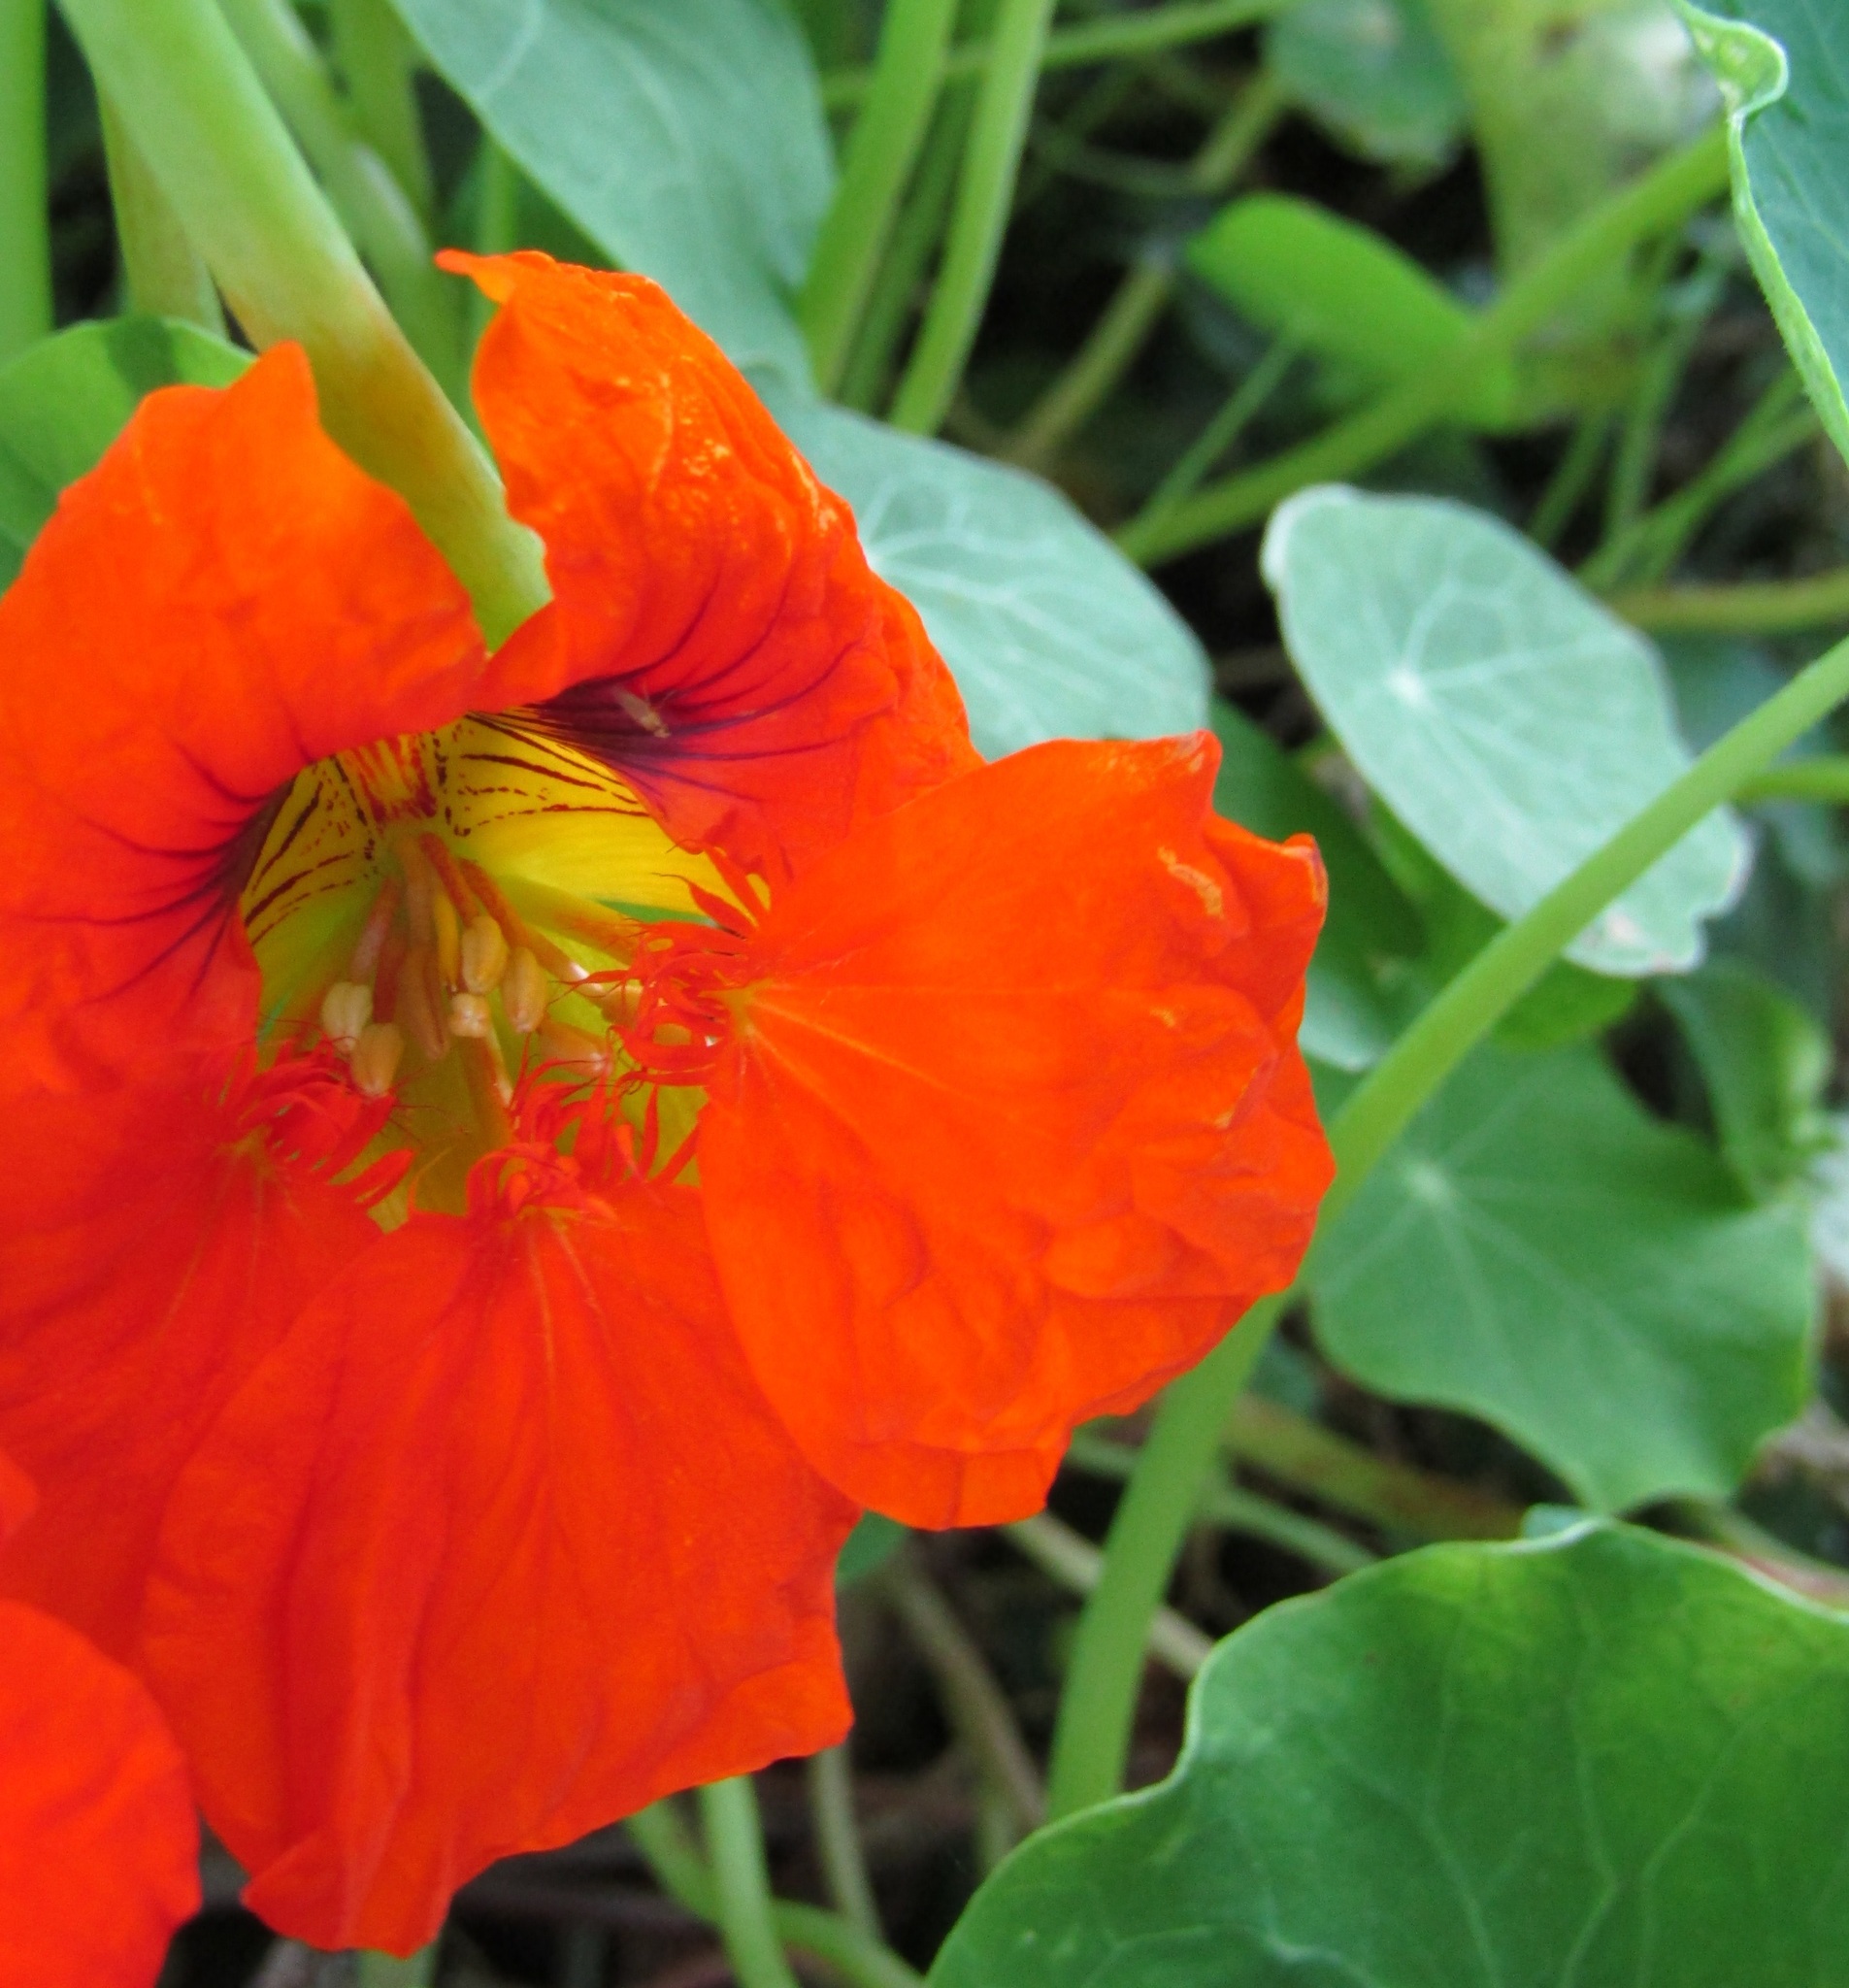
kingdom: Plantae
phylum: Tracheophyta
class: Magnoliopsida
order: Brassicales
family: Tropaeolaceae
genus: Tropaeolum
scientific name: Tropaeolum majus
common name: Nasturtium
